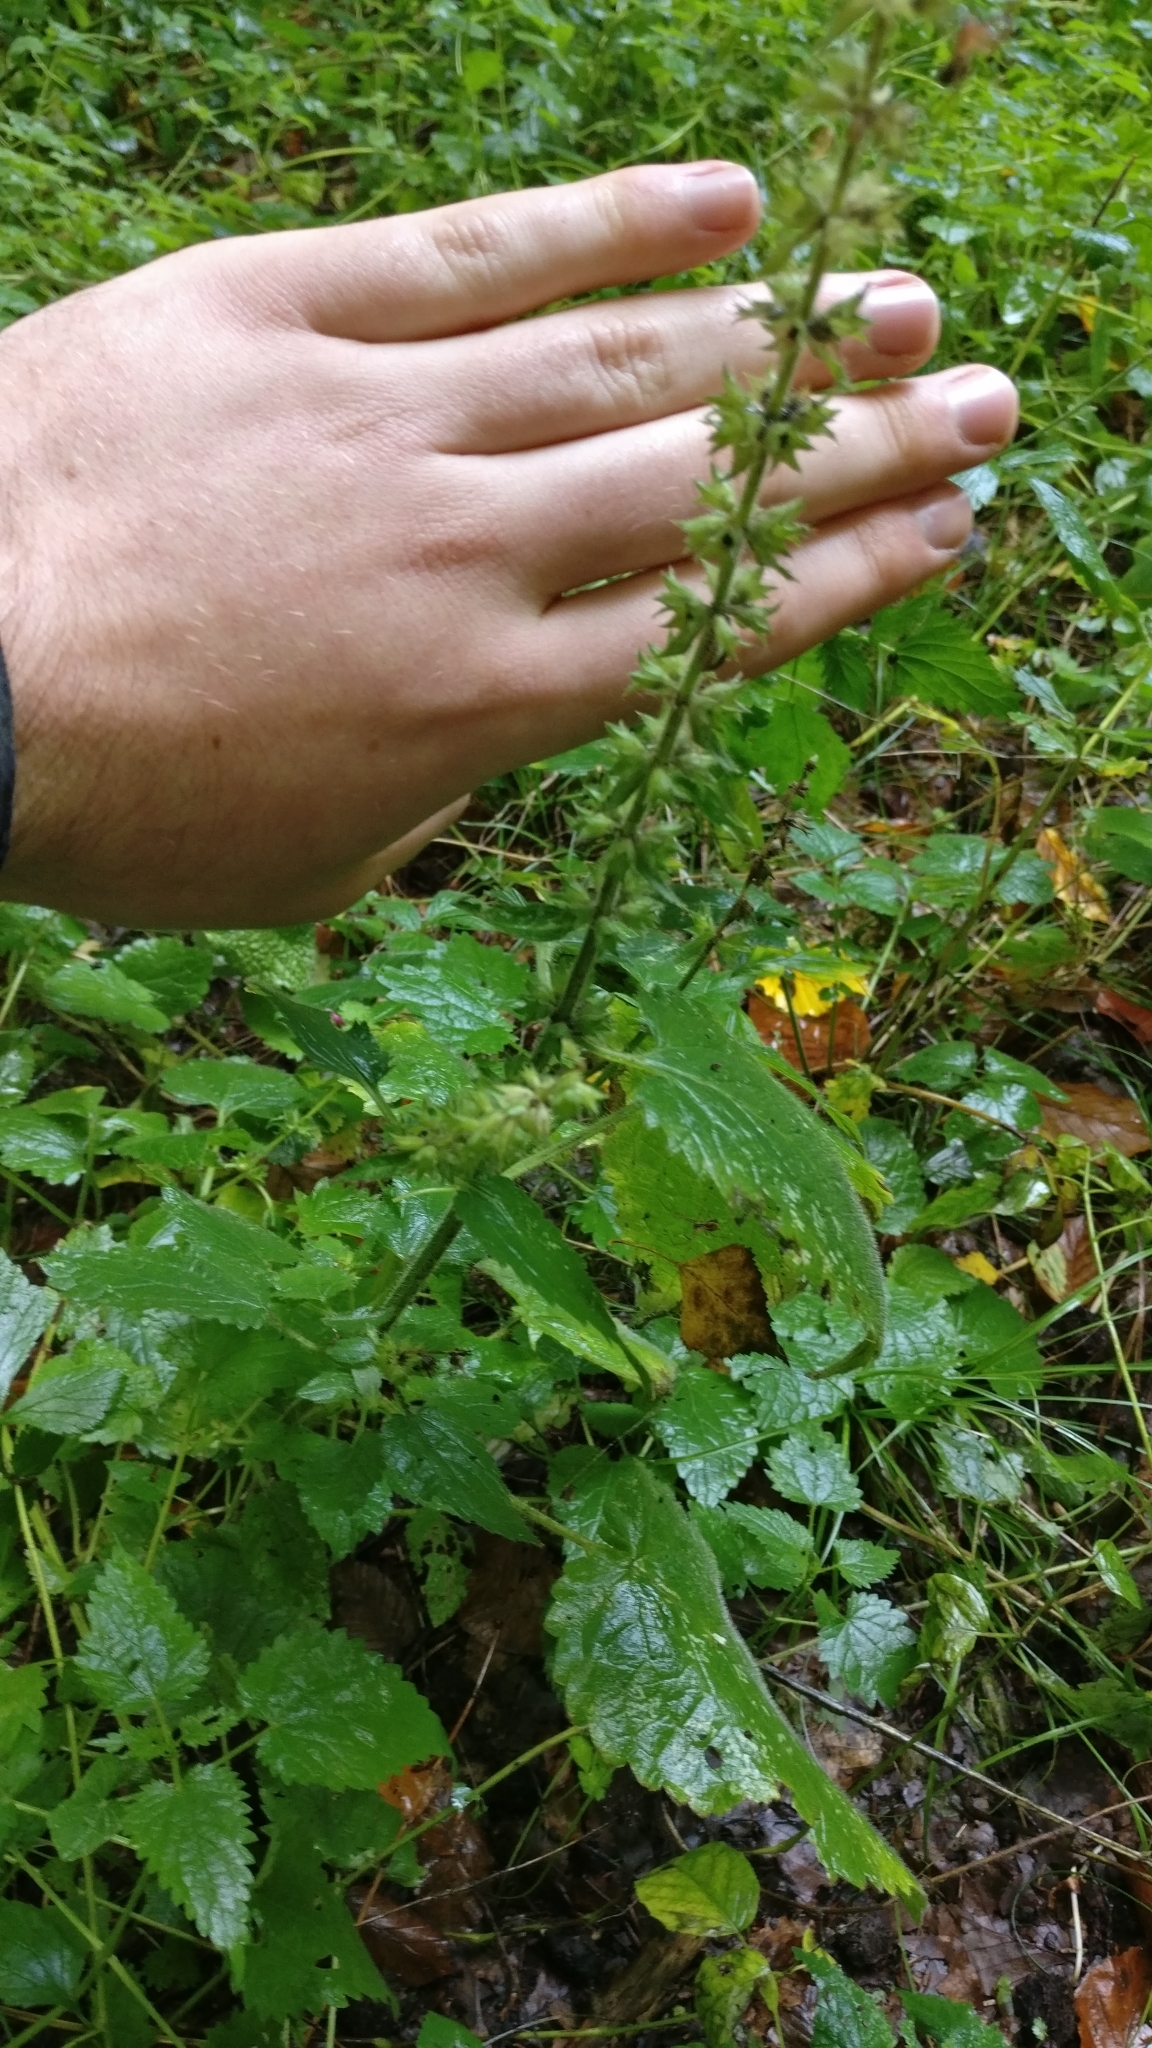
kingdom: Plantae
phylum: Tracheophyta
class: Magnoliopsida
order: Lamiales
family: Lamiaceae
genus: Stachys
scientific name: Stachys sylvatica
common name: Hedge woundwort
